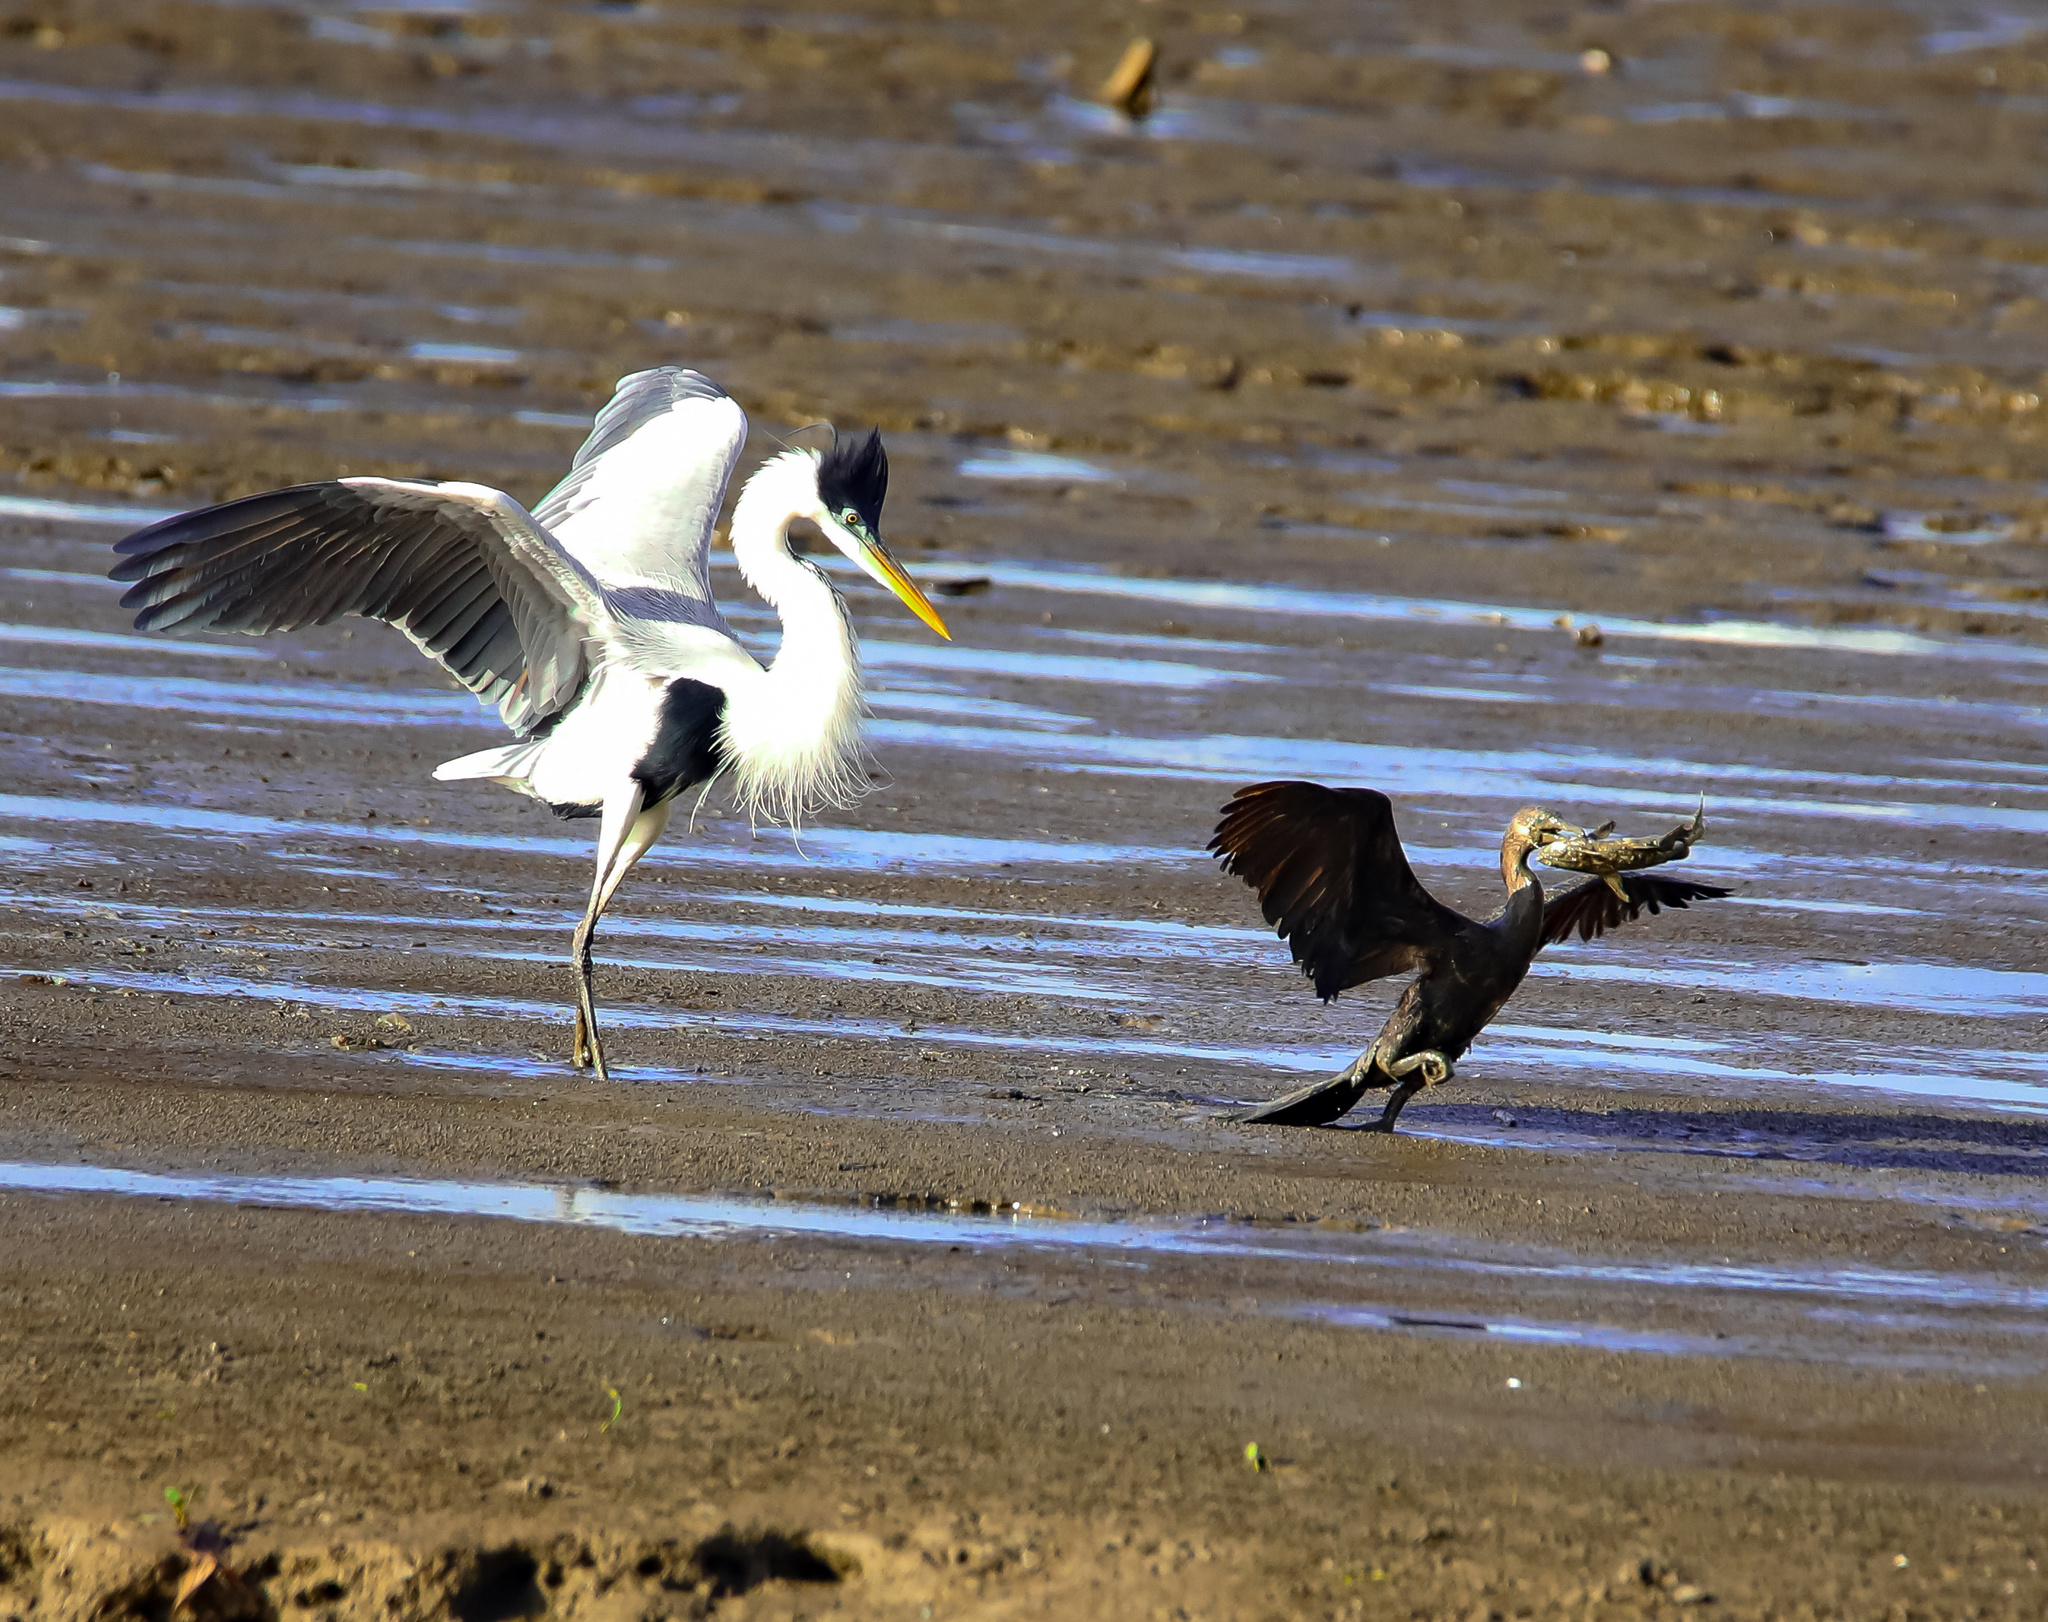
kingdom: Animalia
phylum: Chordata
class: Aves
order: Pelecaniformes
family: Ardeidae
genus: Ardea
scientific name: Ardea cocoi
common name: Cocoi heron
